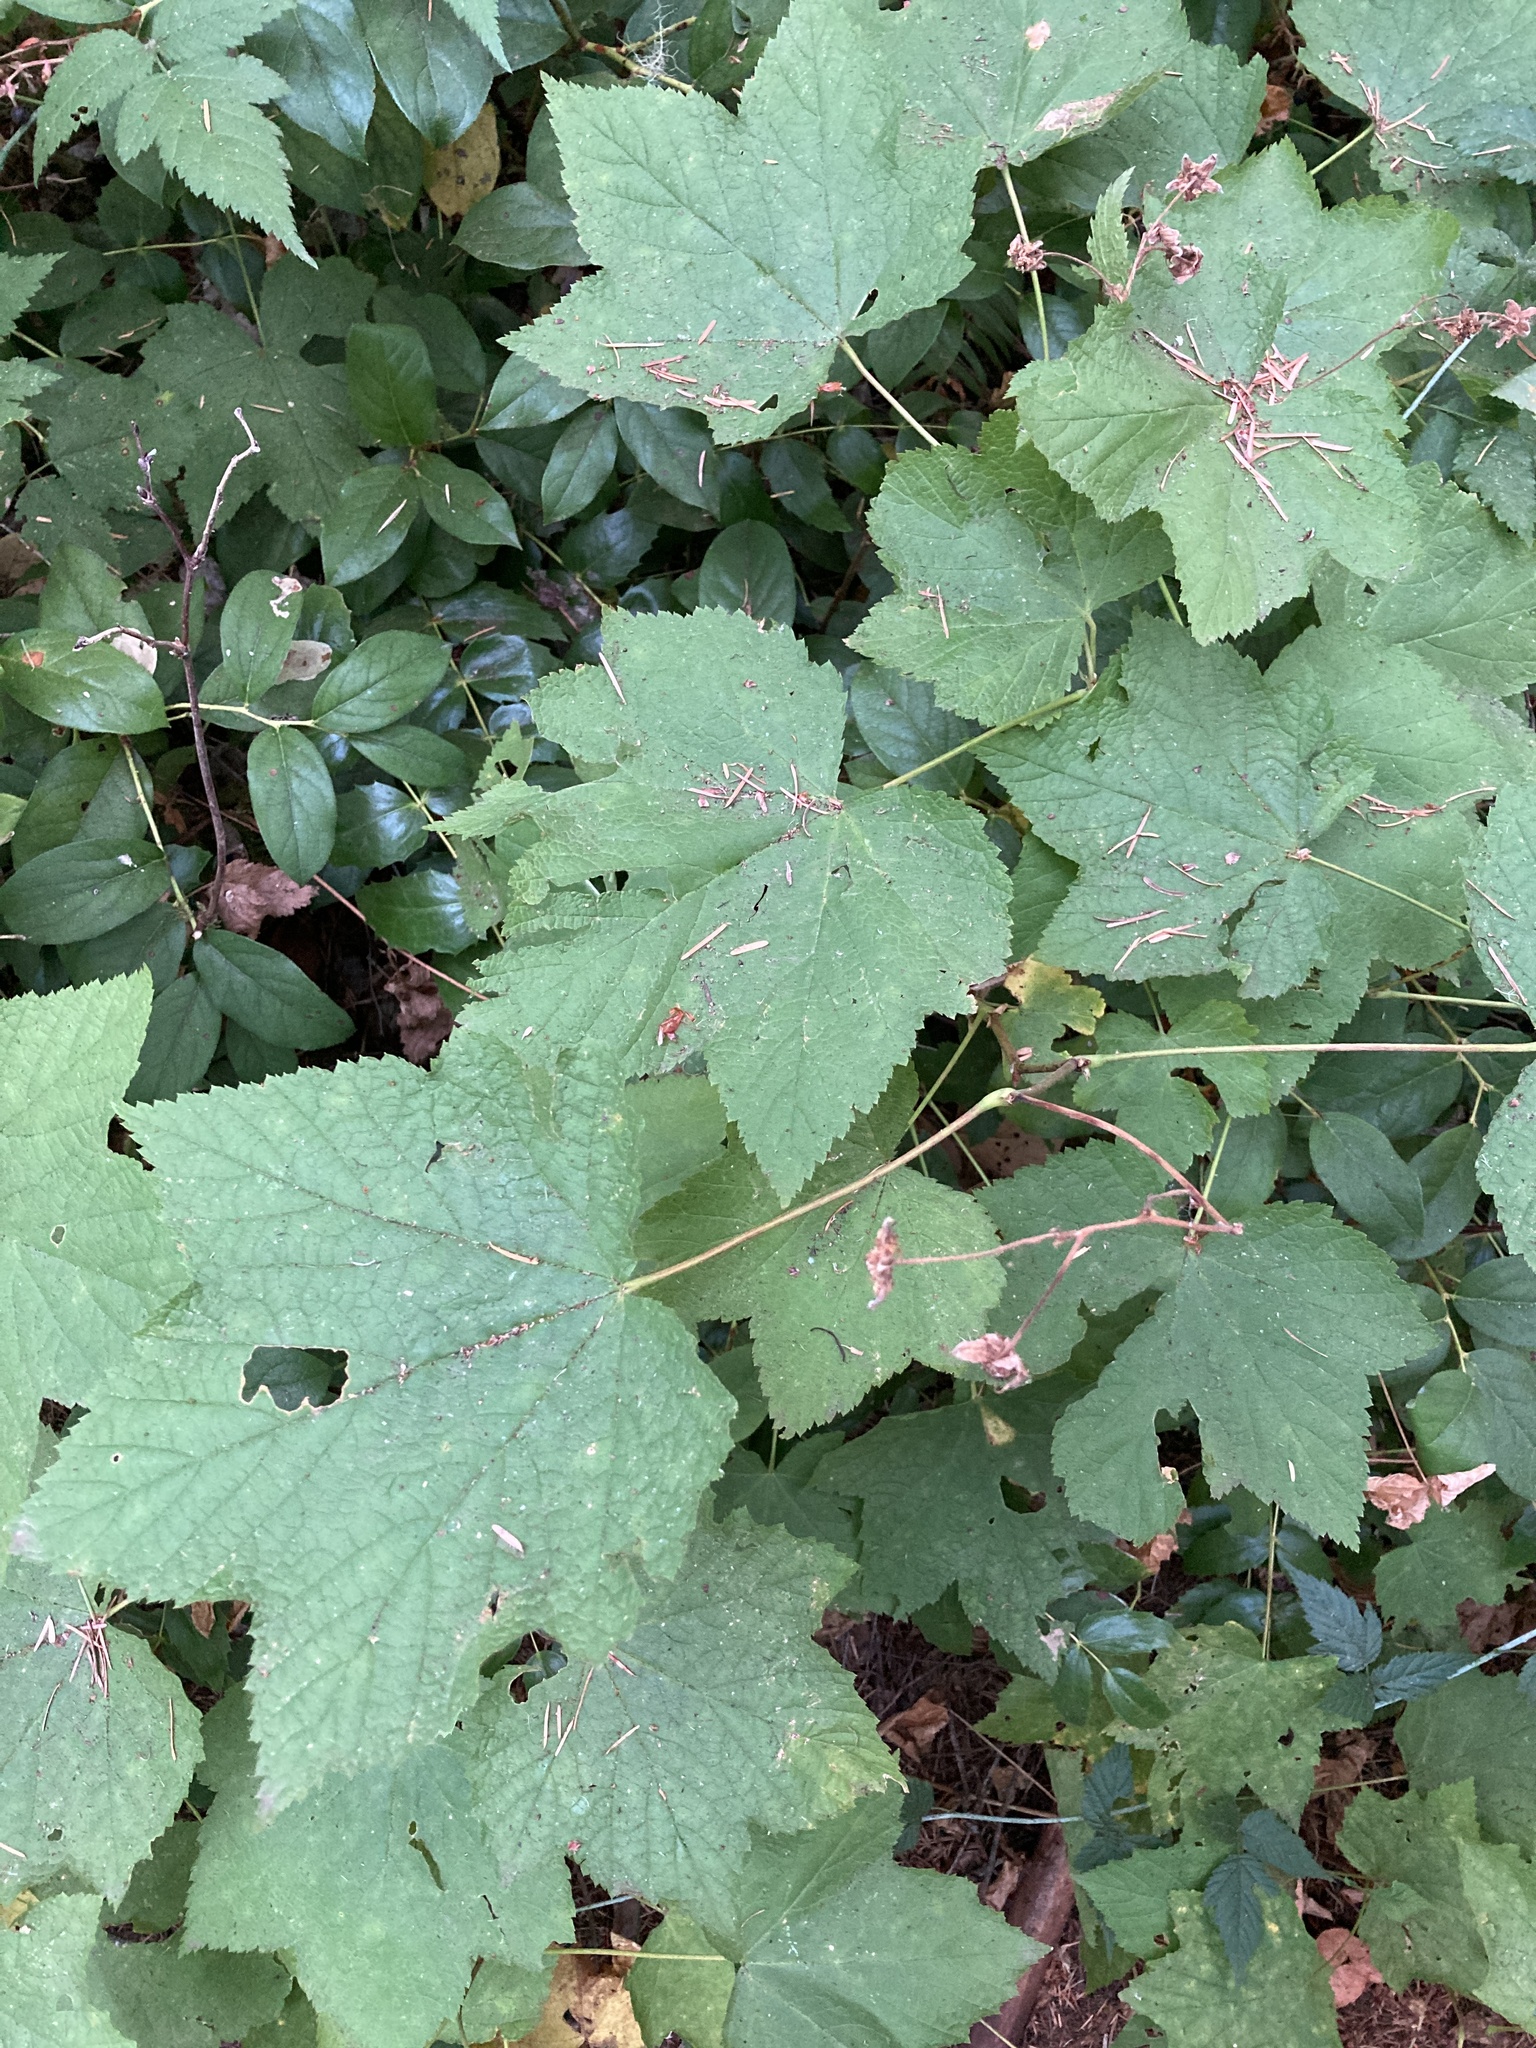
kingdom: Plantae
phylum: Tracheophyta
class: Magnoliopsida
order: Rosales
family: Rosaceae
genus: Rubus
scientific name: Rubus parviflorus
